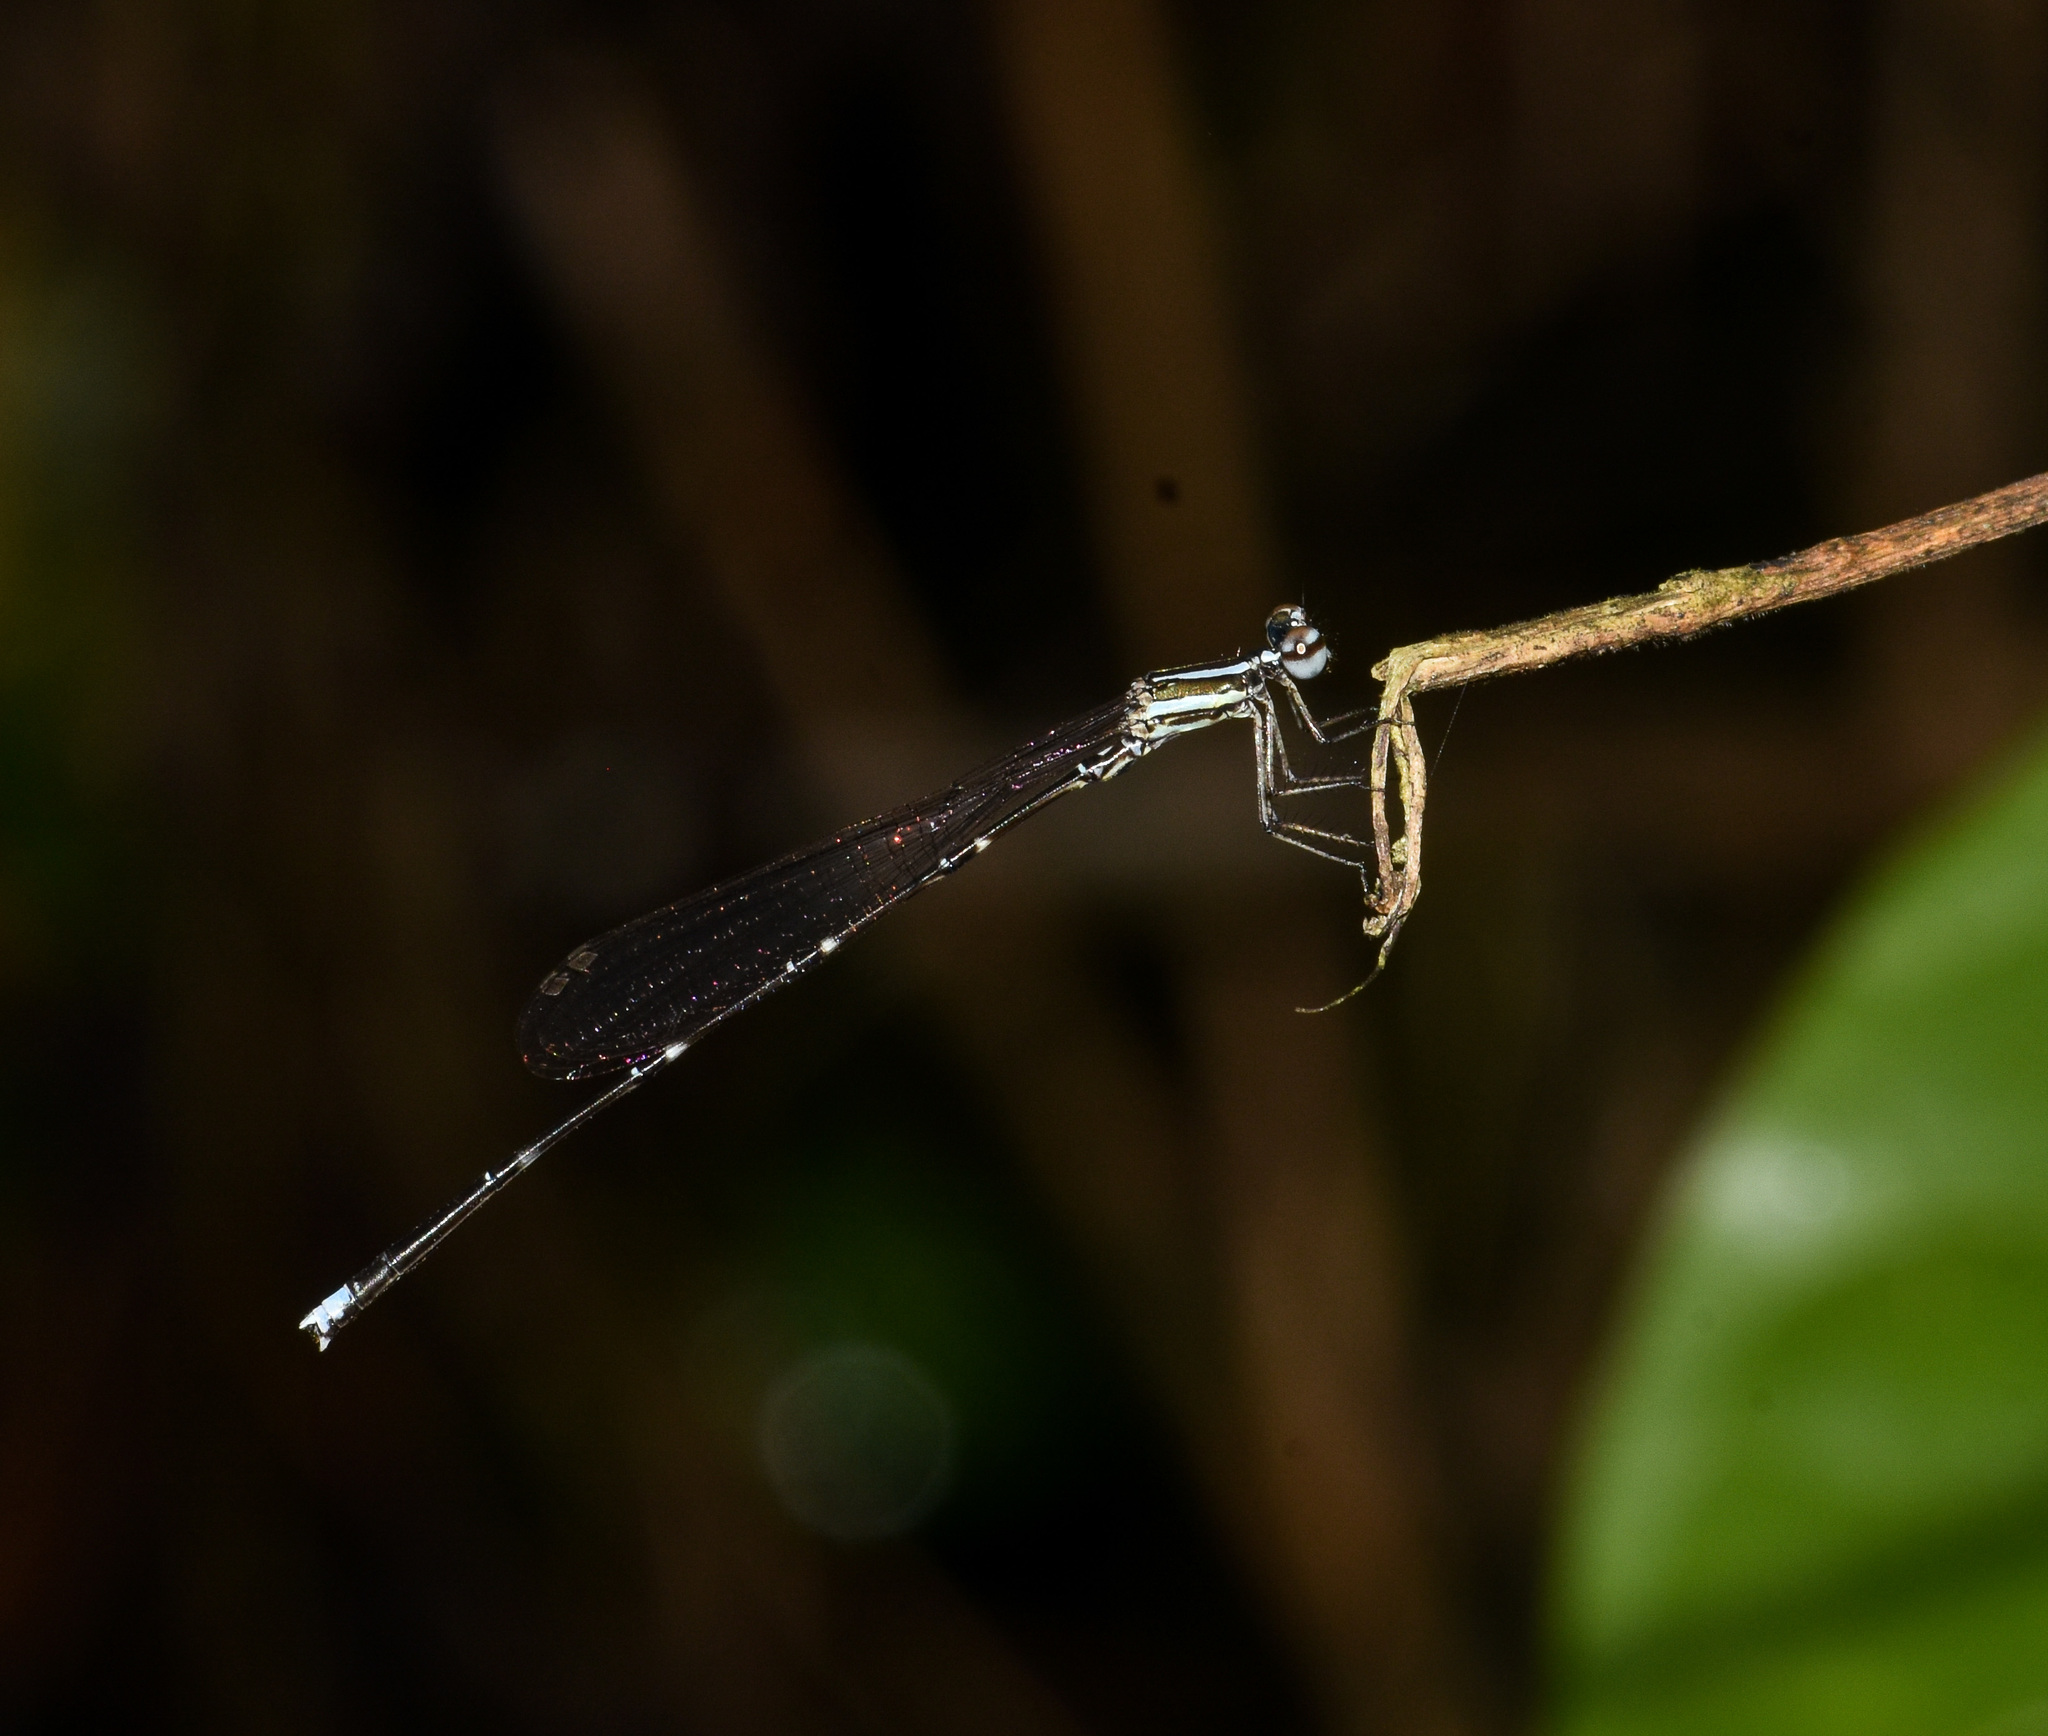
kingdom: Animalia
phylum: Arthropoda
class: Insecta
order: Odonata
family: Platycnemididae
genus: Elattoneura
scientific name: Elattoneura campioni
